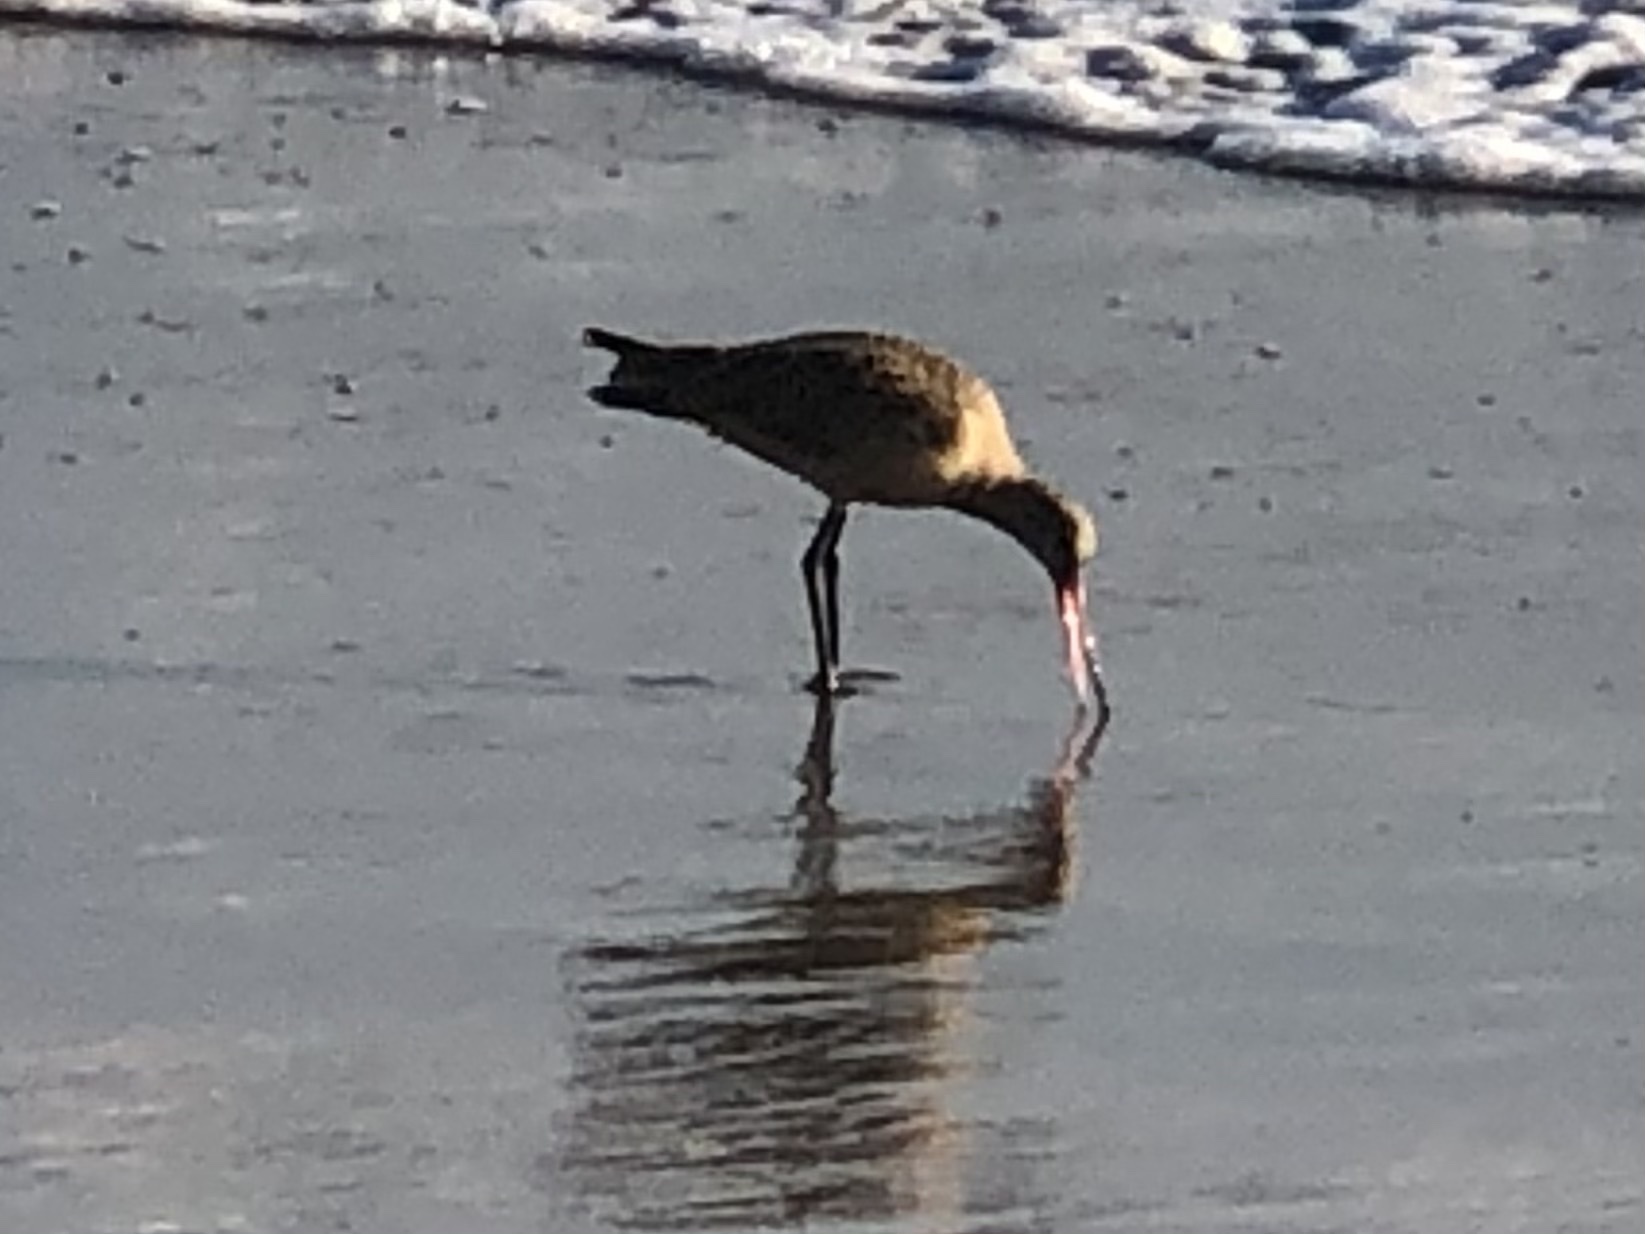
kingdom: Animalia
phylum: Chordata
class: Aves
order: Charadriiformes
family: Scolopacidae
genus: Limosa
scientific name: Limosa fedoa
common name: Marbled godwit
